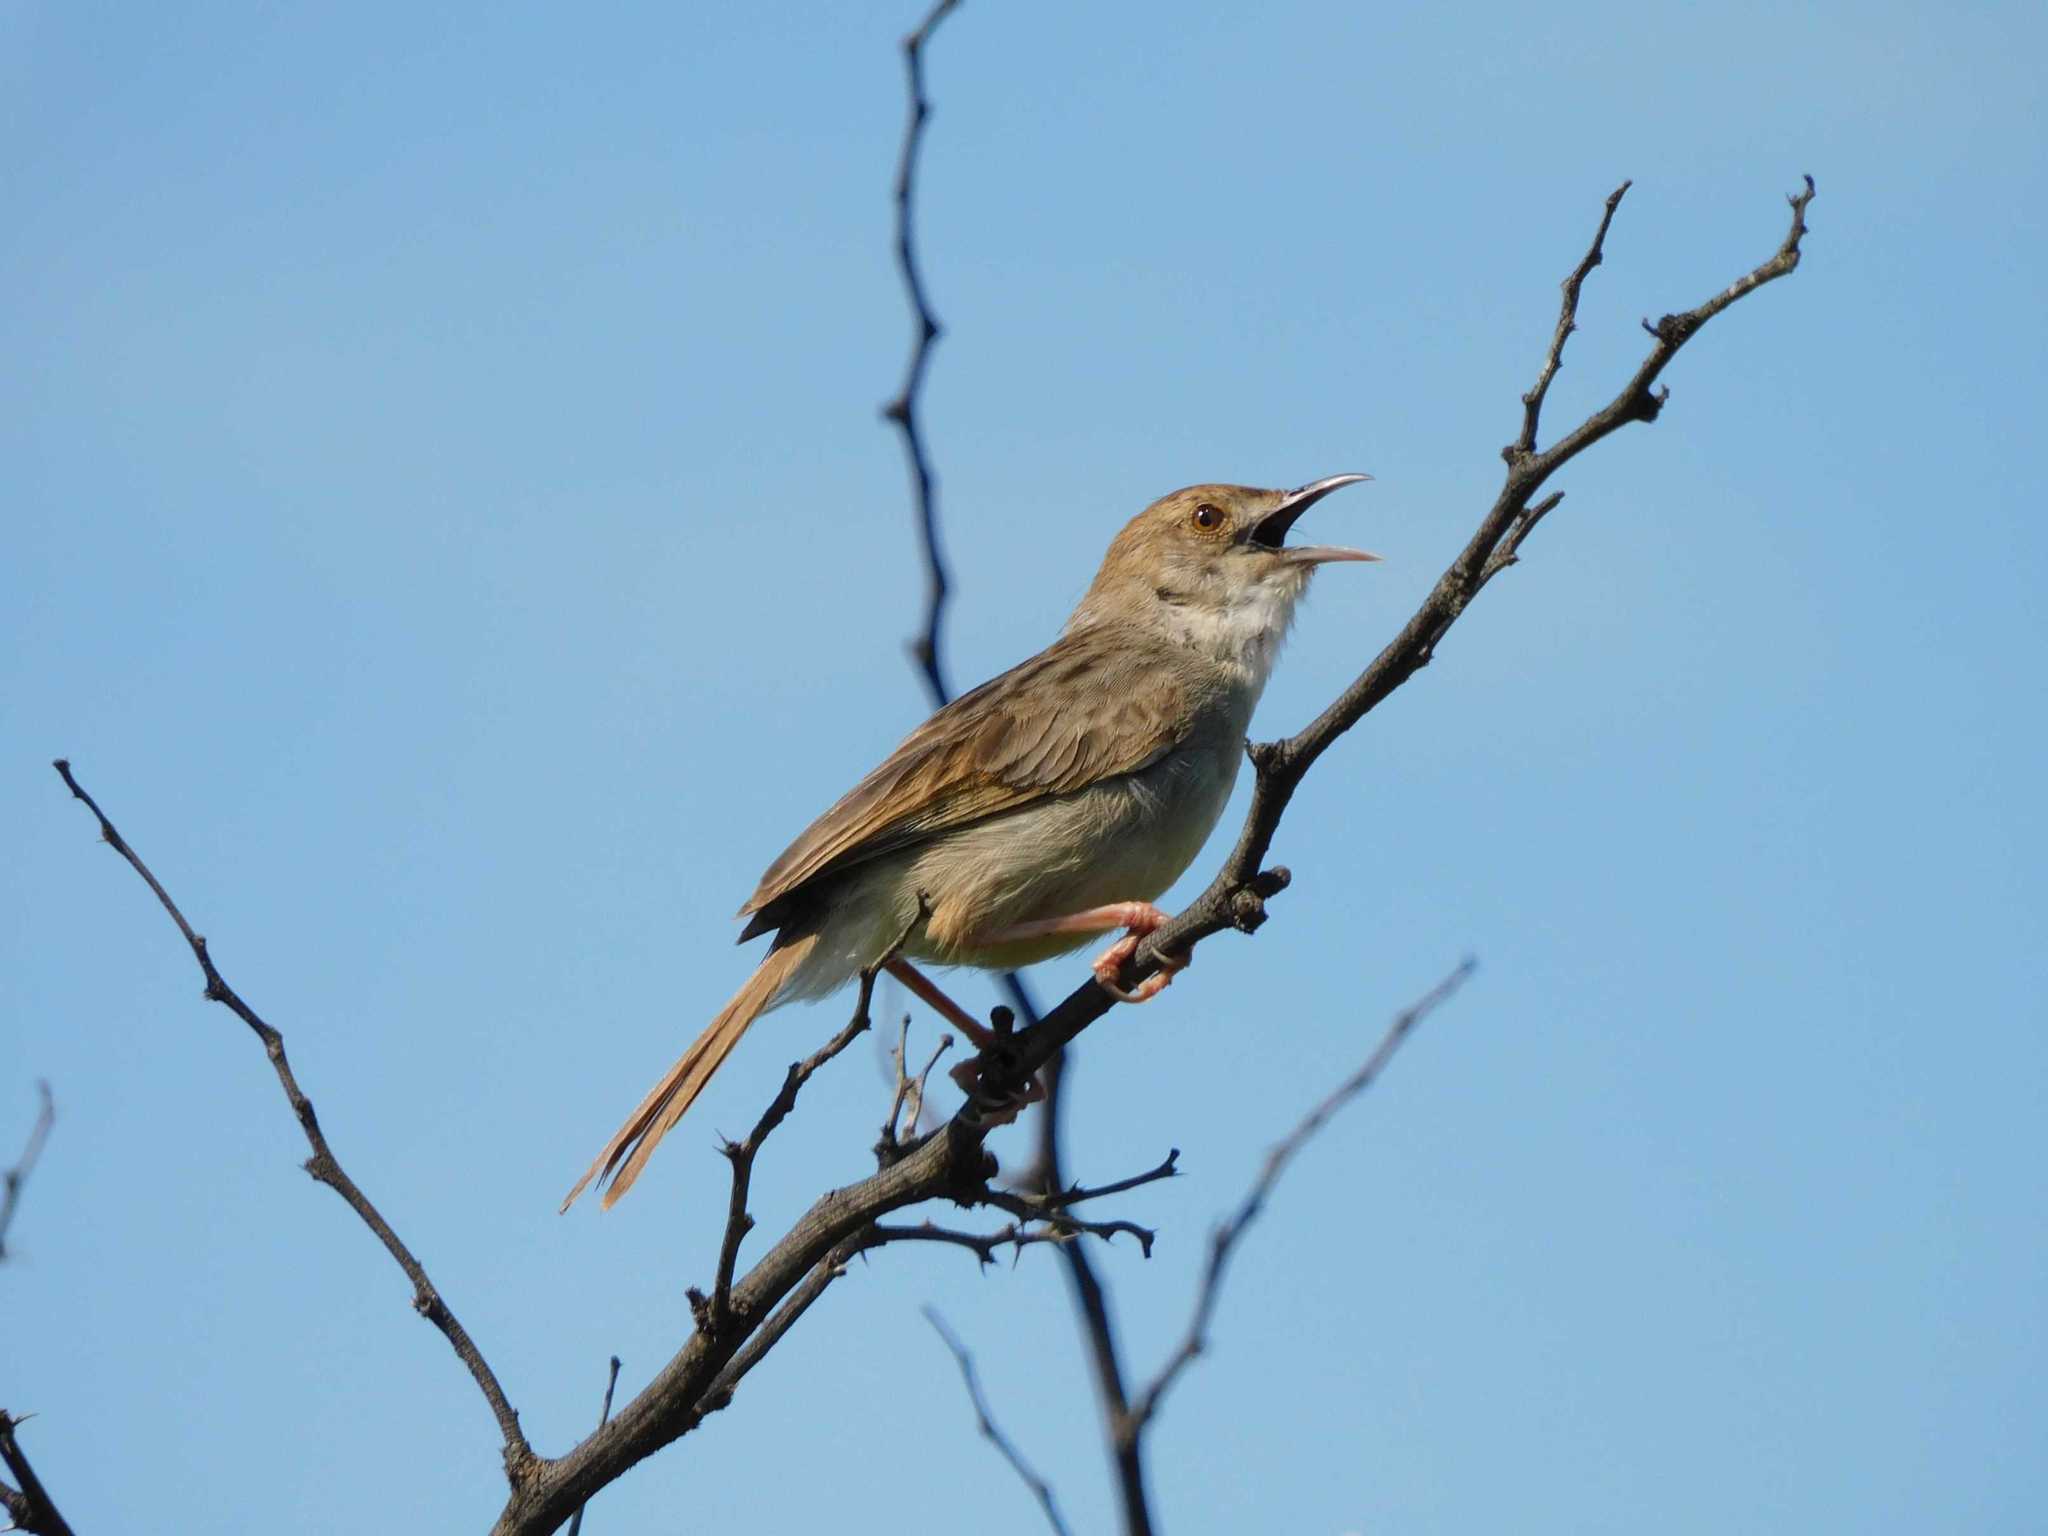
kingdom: Animalia
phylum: Chordata
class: Aves
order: Passeriformes
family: Cisticolidae
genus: Cisticola
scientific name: Cisticola chiniana
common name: Rattling cisticola
